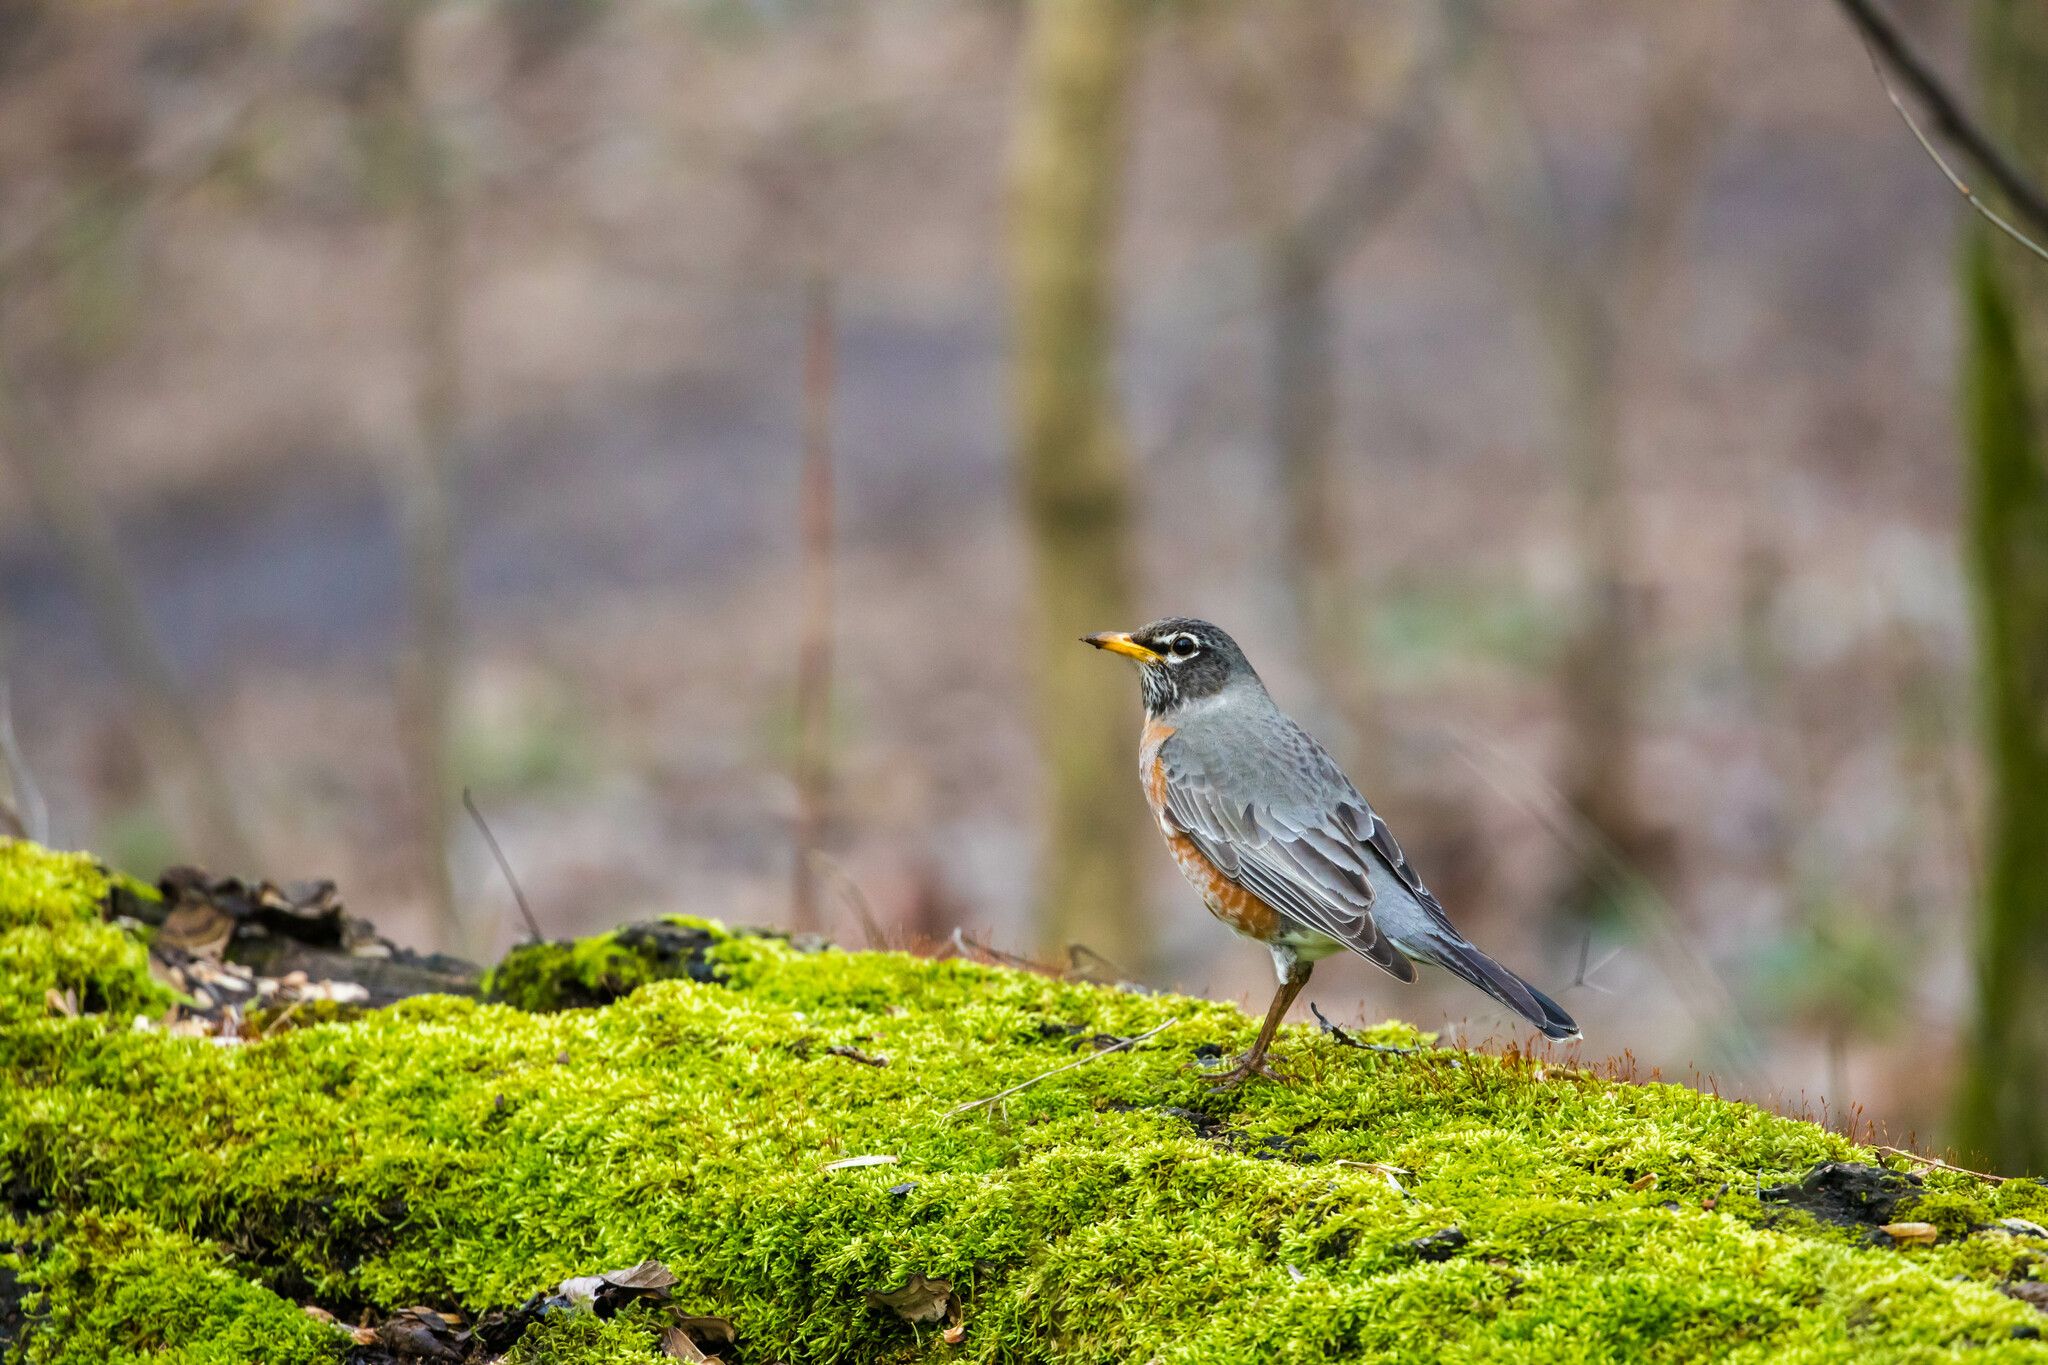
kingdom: Animalia
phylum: Chordata
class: Aves
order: Passeriformes
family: Turdidae
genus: Turdus
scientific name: Turdus migratorius
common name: American robin
